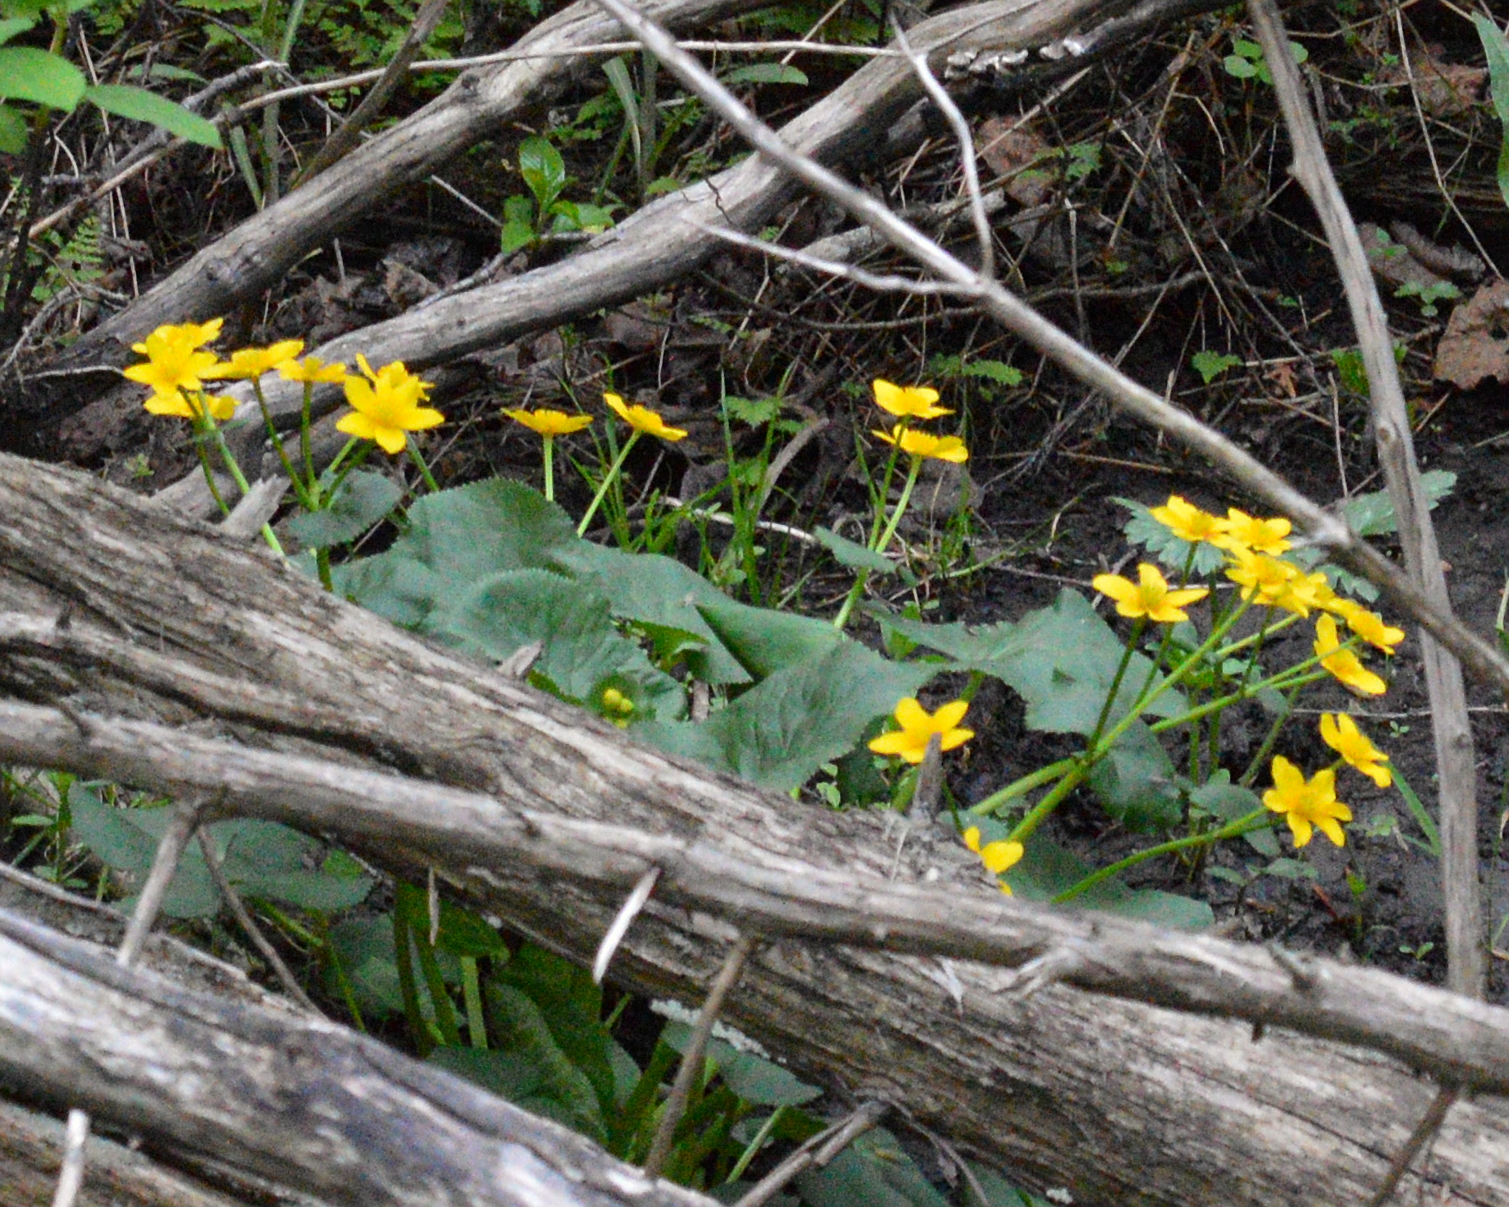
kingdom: Plantae
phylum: Tracheophyta
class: Magnoliopsida
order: Ranunculales
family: Ranunculaceae
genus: Caltha
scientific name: Caltha palustris
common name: Marsh marigold
